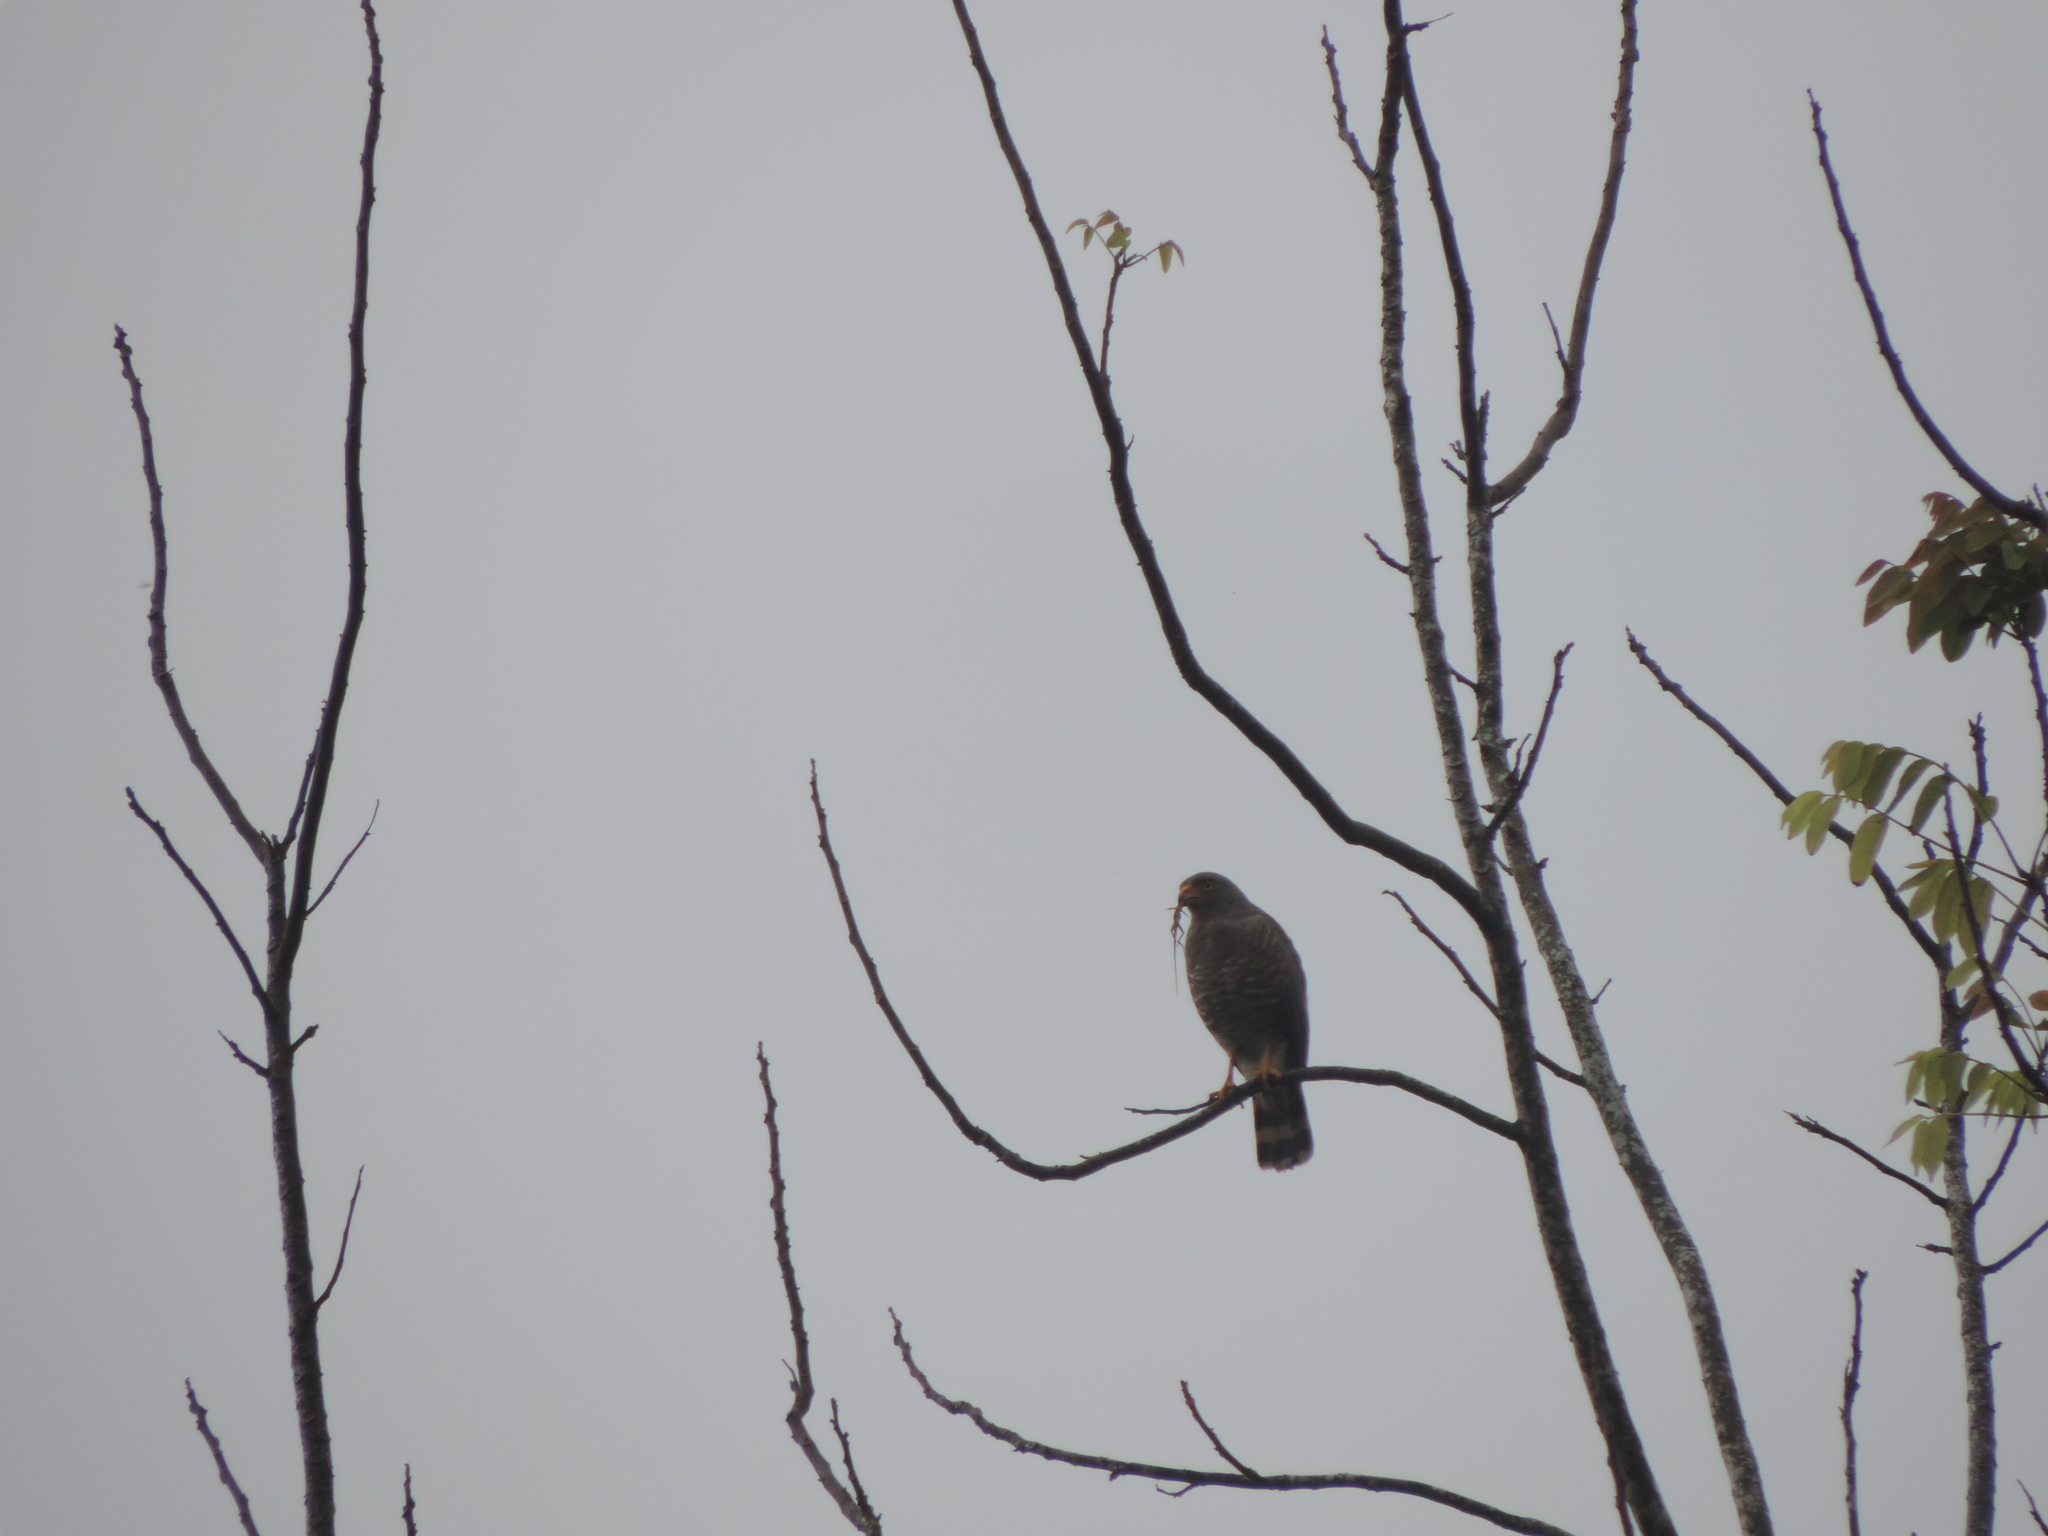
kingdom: Animalia
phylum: Chordata
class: Aves
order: Accipitriformes
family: Accipitridae
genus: Rupornis
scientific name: Rupornis magnirostris
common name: Roadside hawk
